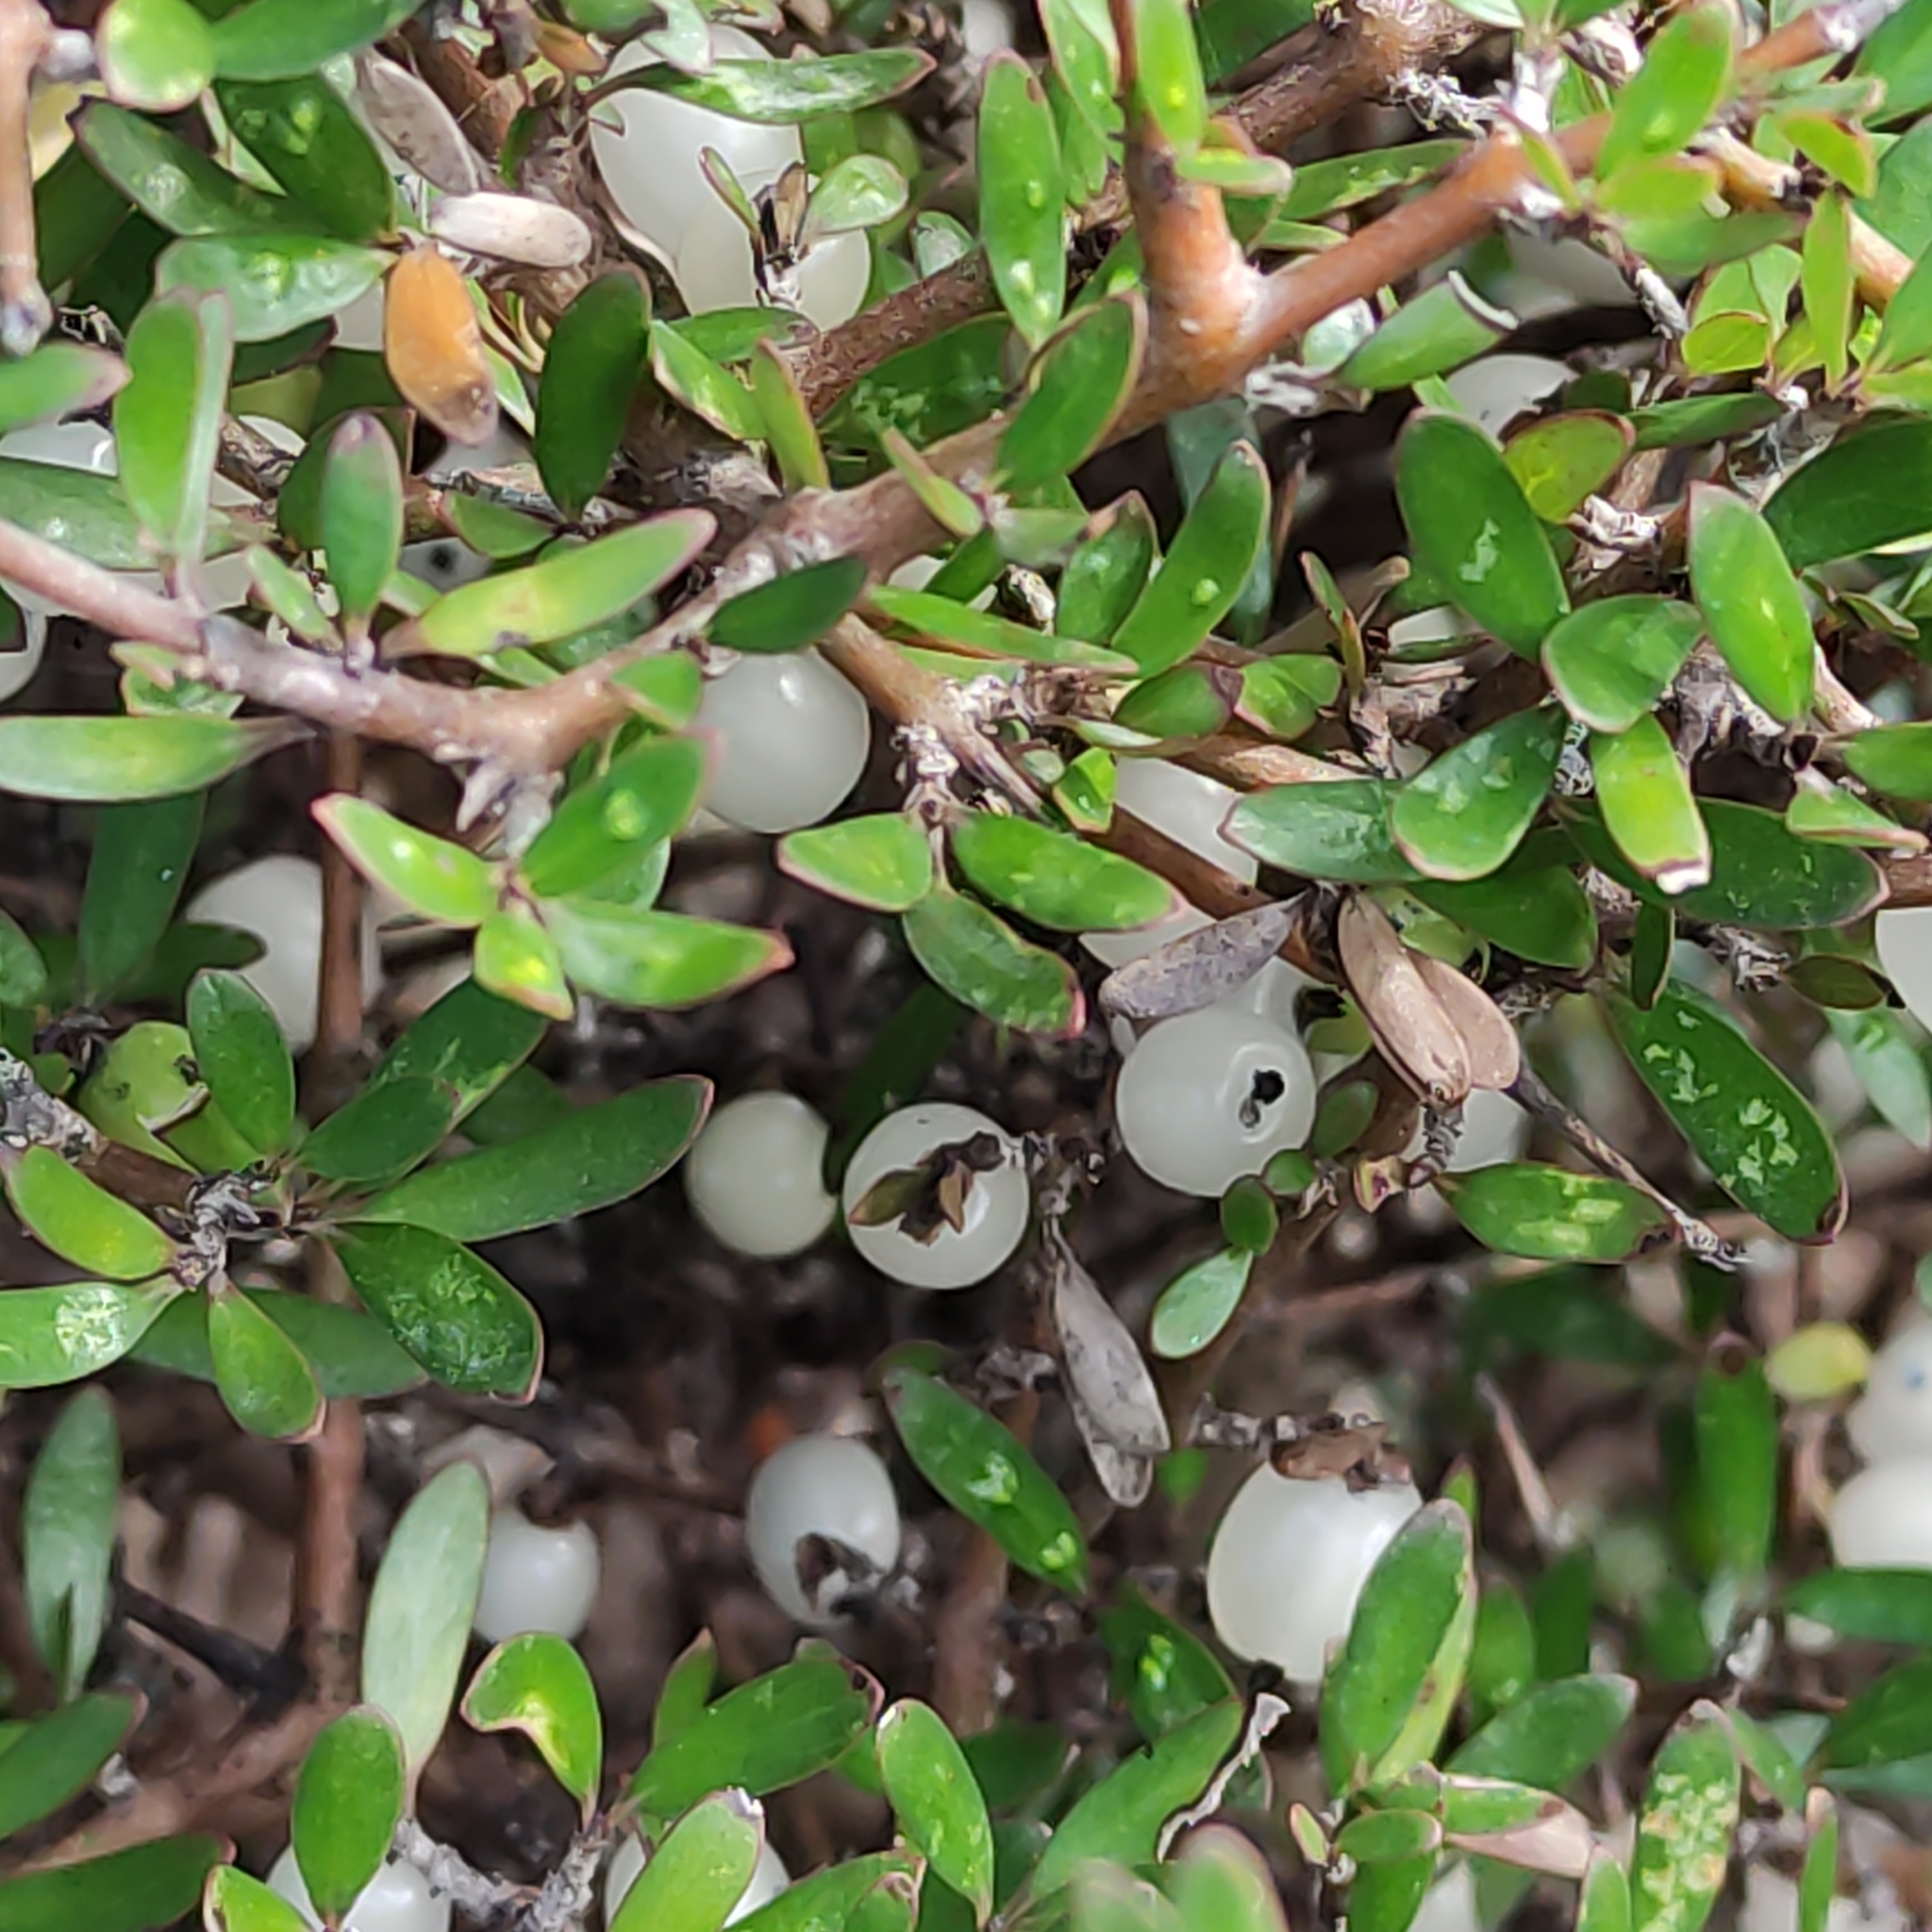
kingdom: Plantae
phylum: Tracheophyta
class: Magnoliopsida
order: Gentianales
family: Rubiaceae
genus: Coprosma
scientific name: Coprosma propinqua
